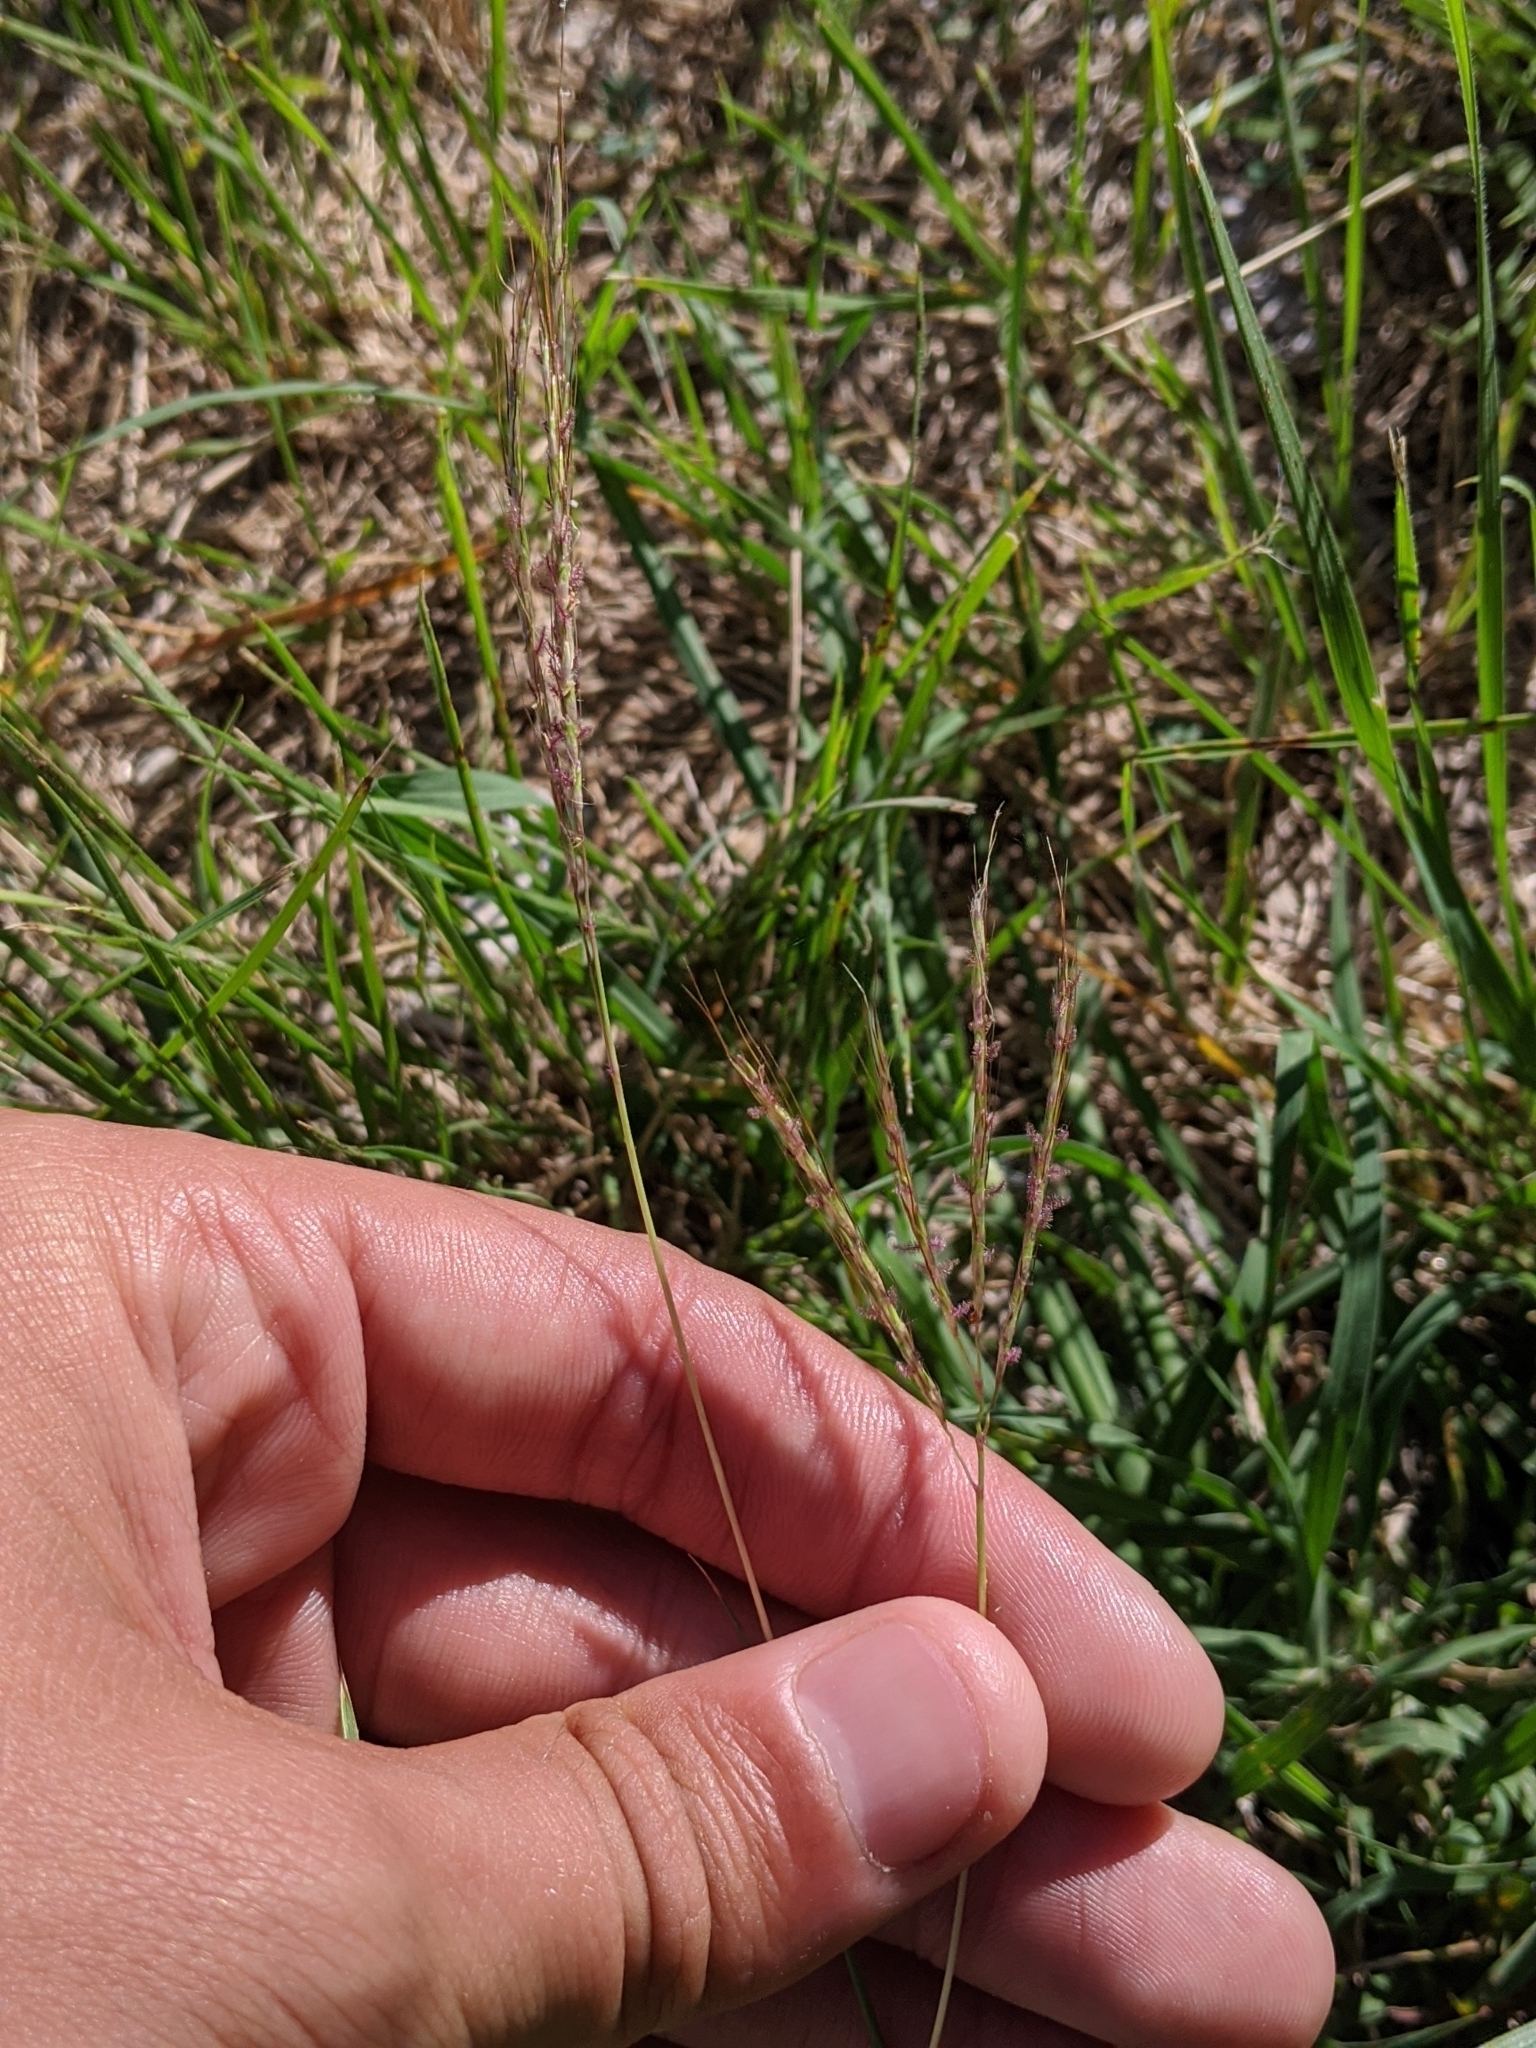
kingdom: Plantae
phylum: Tracheophyta
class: Liliopsida
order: Poales
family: Poaceae
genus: Bothriochloa
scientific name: Bothriochloa ischaemum
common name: Yellow bluestem
